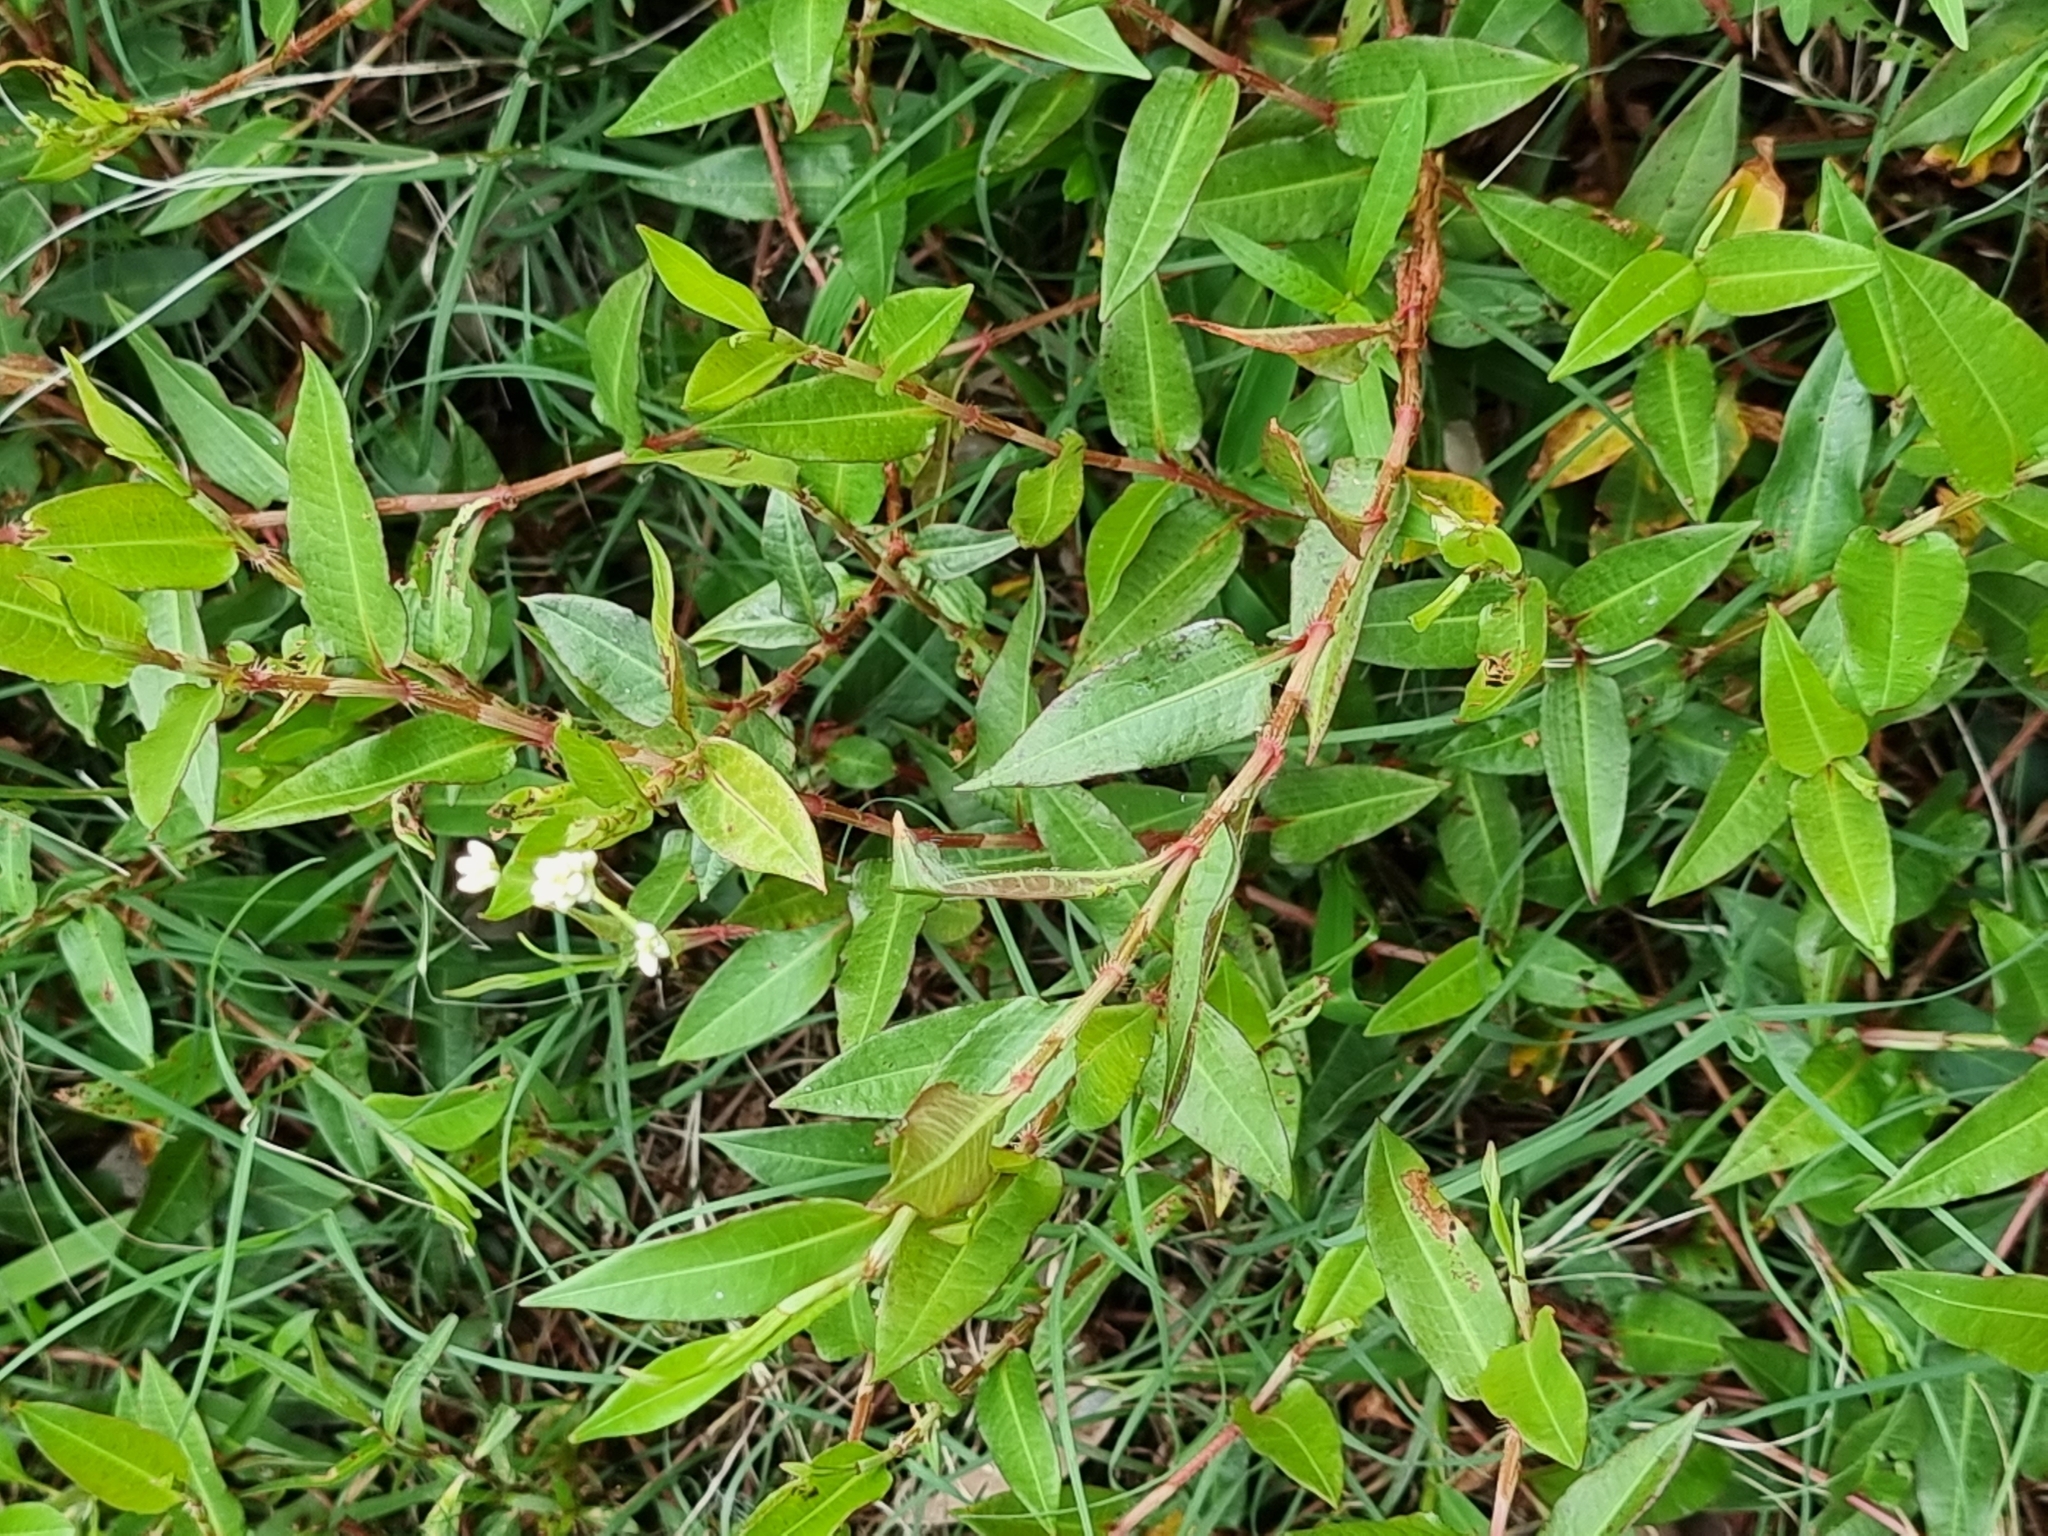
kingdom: Plantae
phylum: Tracheophyta
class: Magnoliopsida
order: Caryophyllales
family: Polygonaceae
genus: Persicaria
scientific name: Persicaria strigosa
